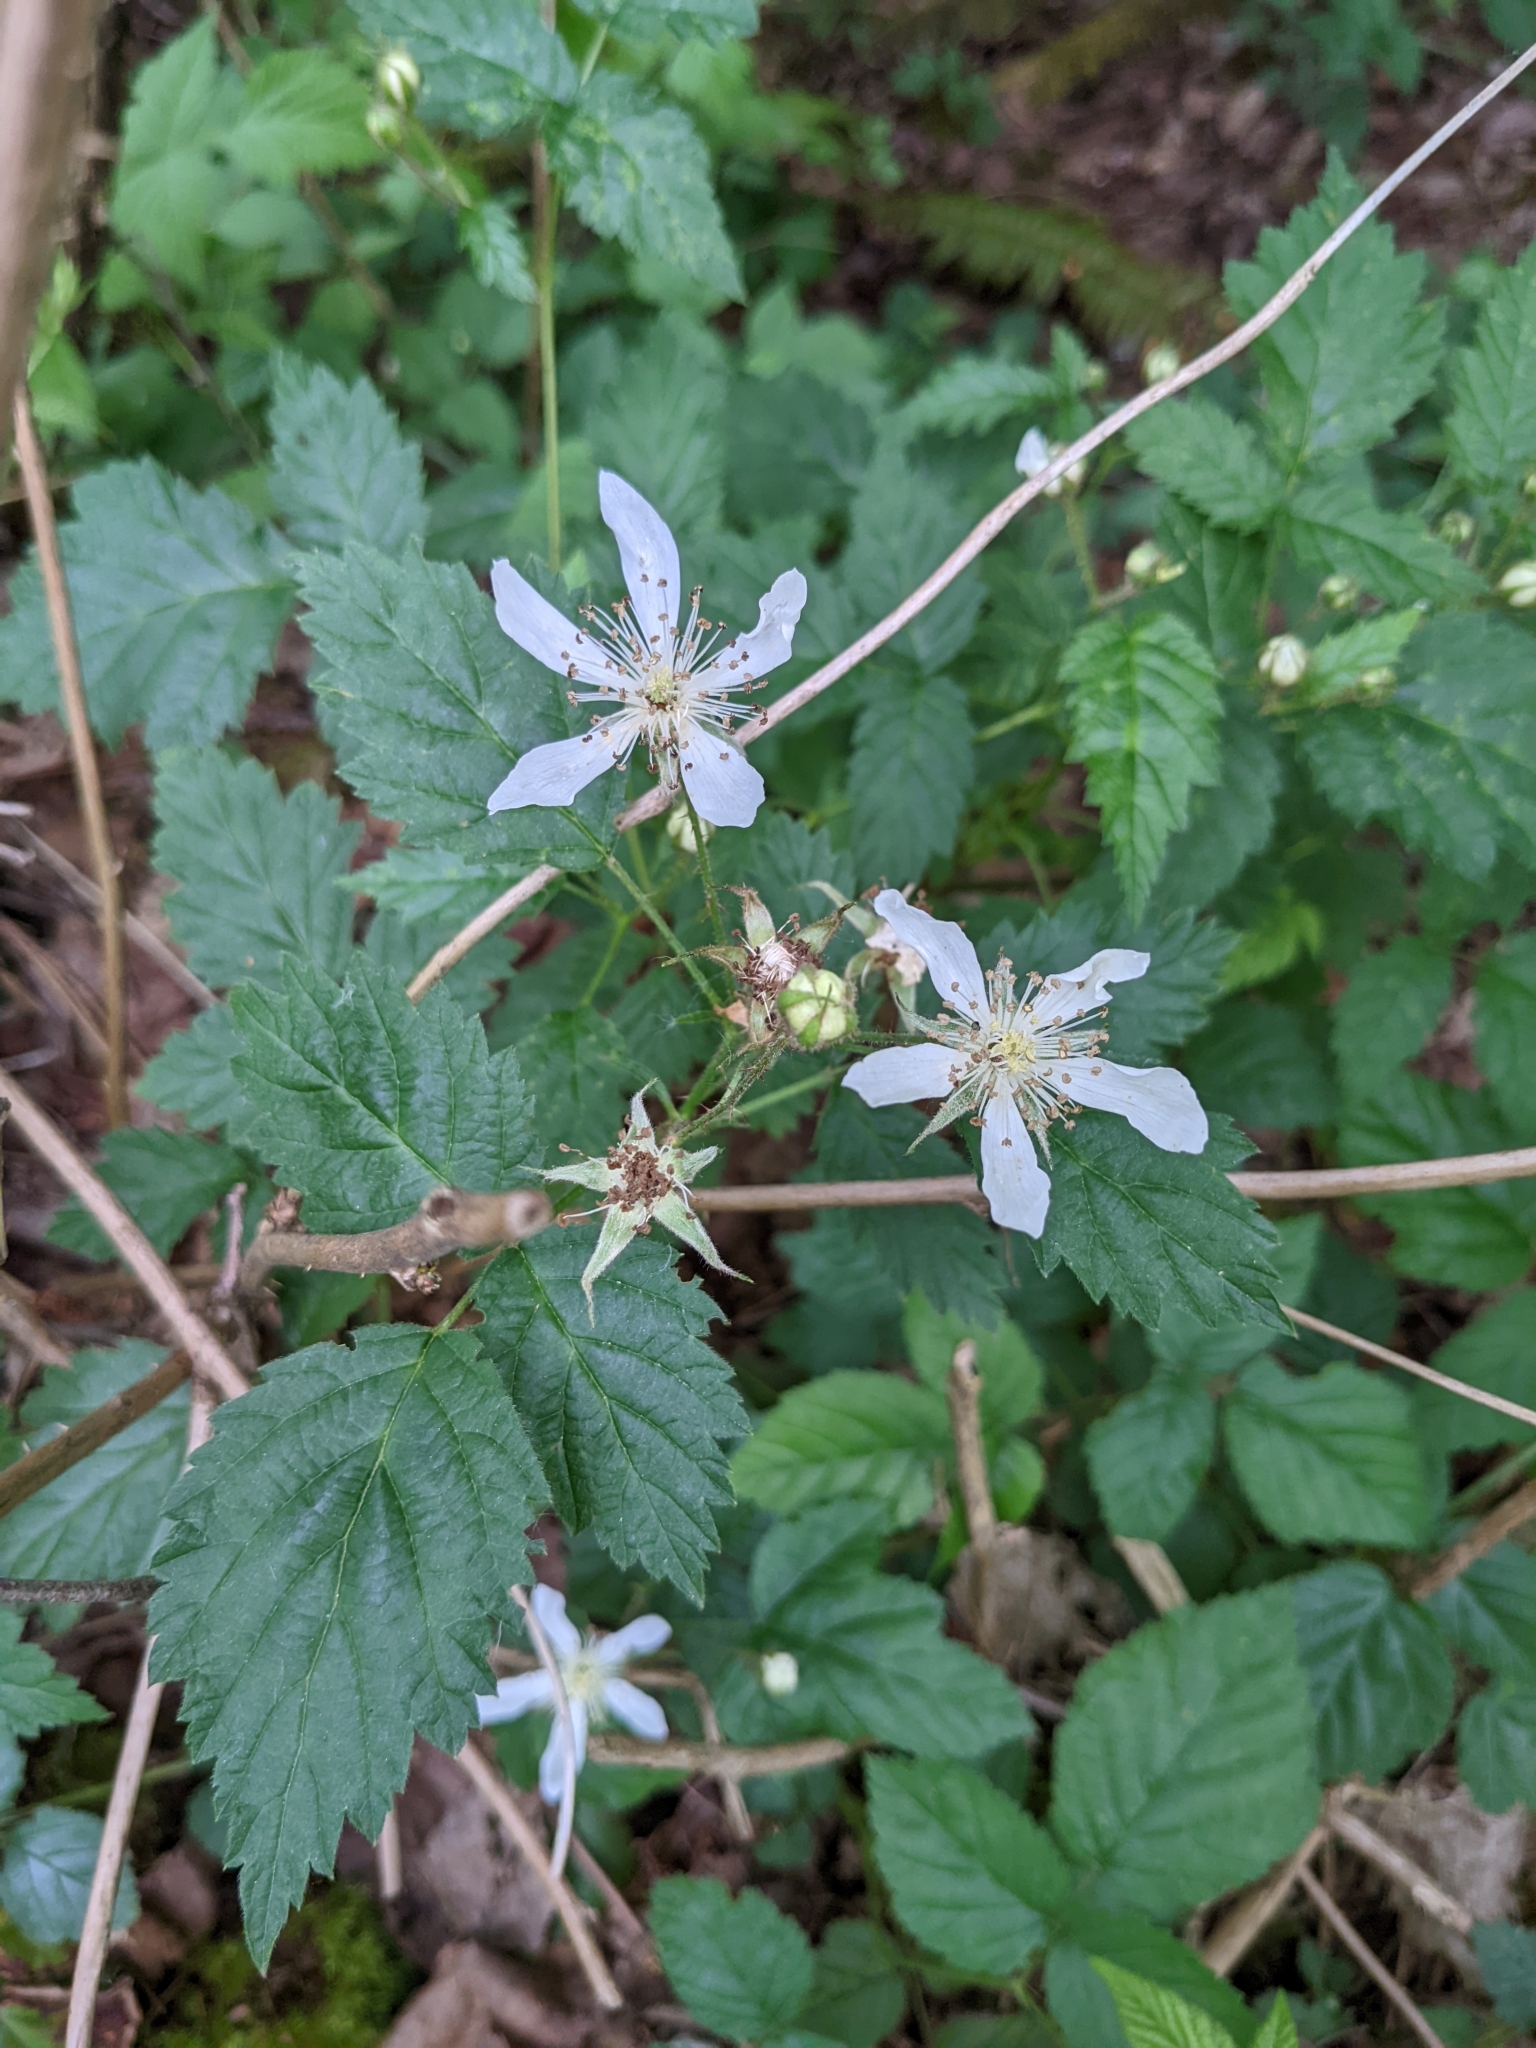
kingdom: Plantae
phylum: Tracheophyta
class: Magnoliopsida
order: Rosales
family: Rosaceae
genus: Rubus
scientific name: Rubus ursinus
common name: Pacific blackberry
